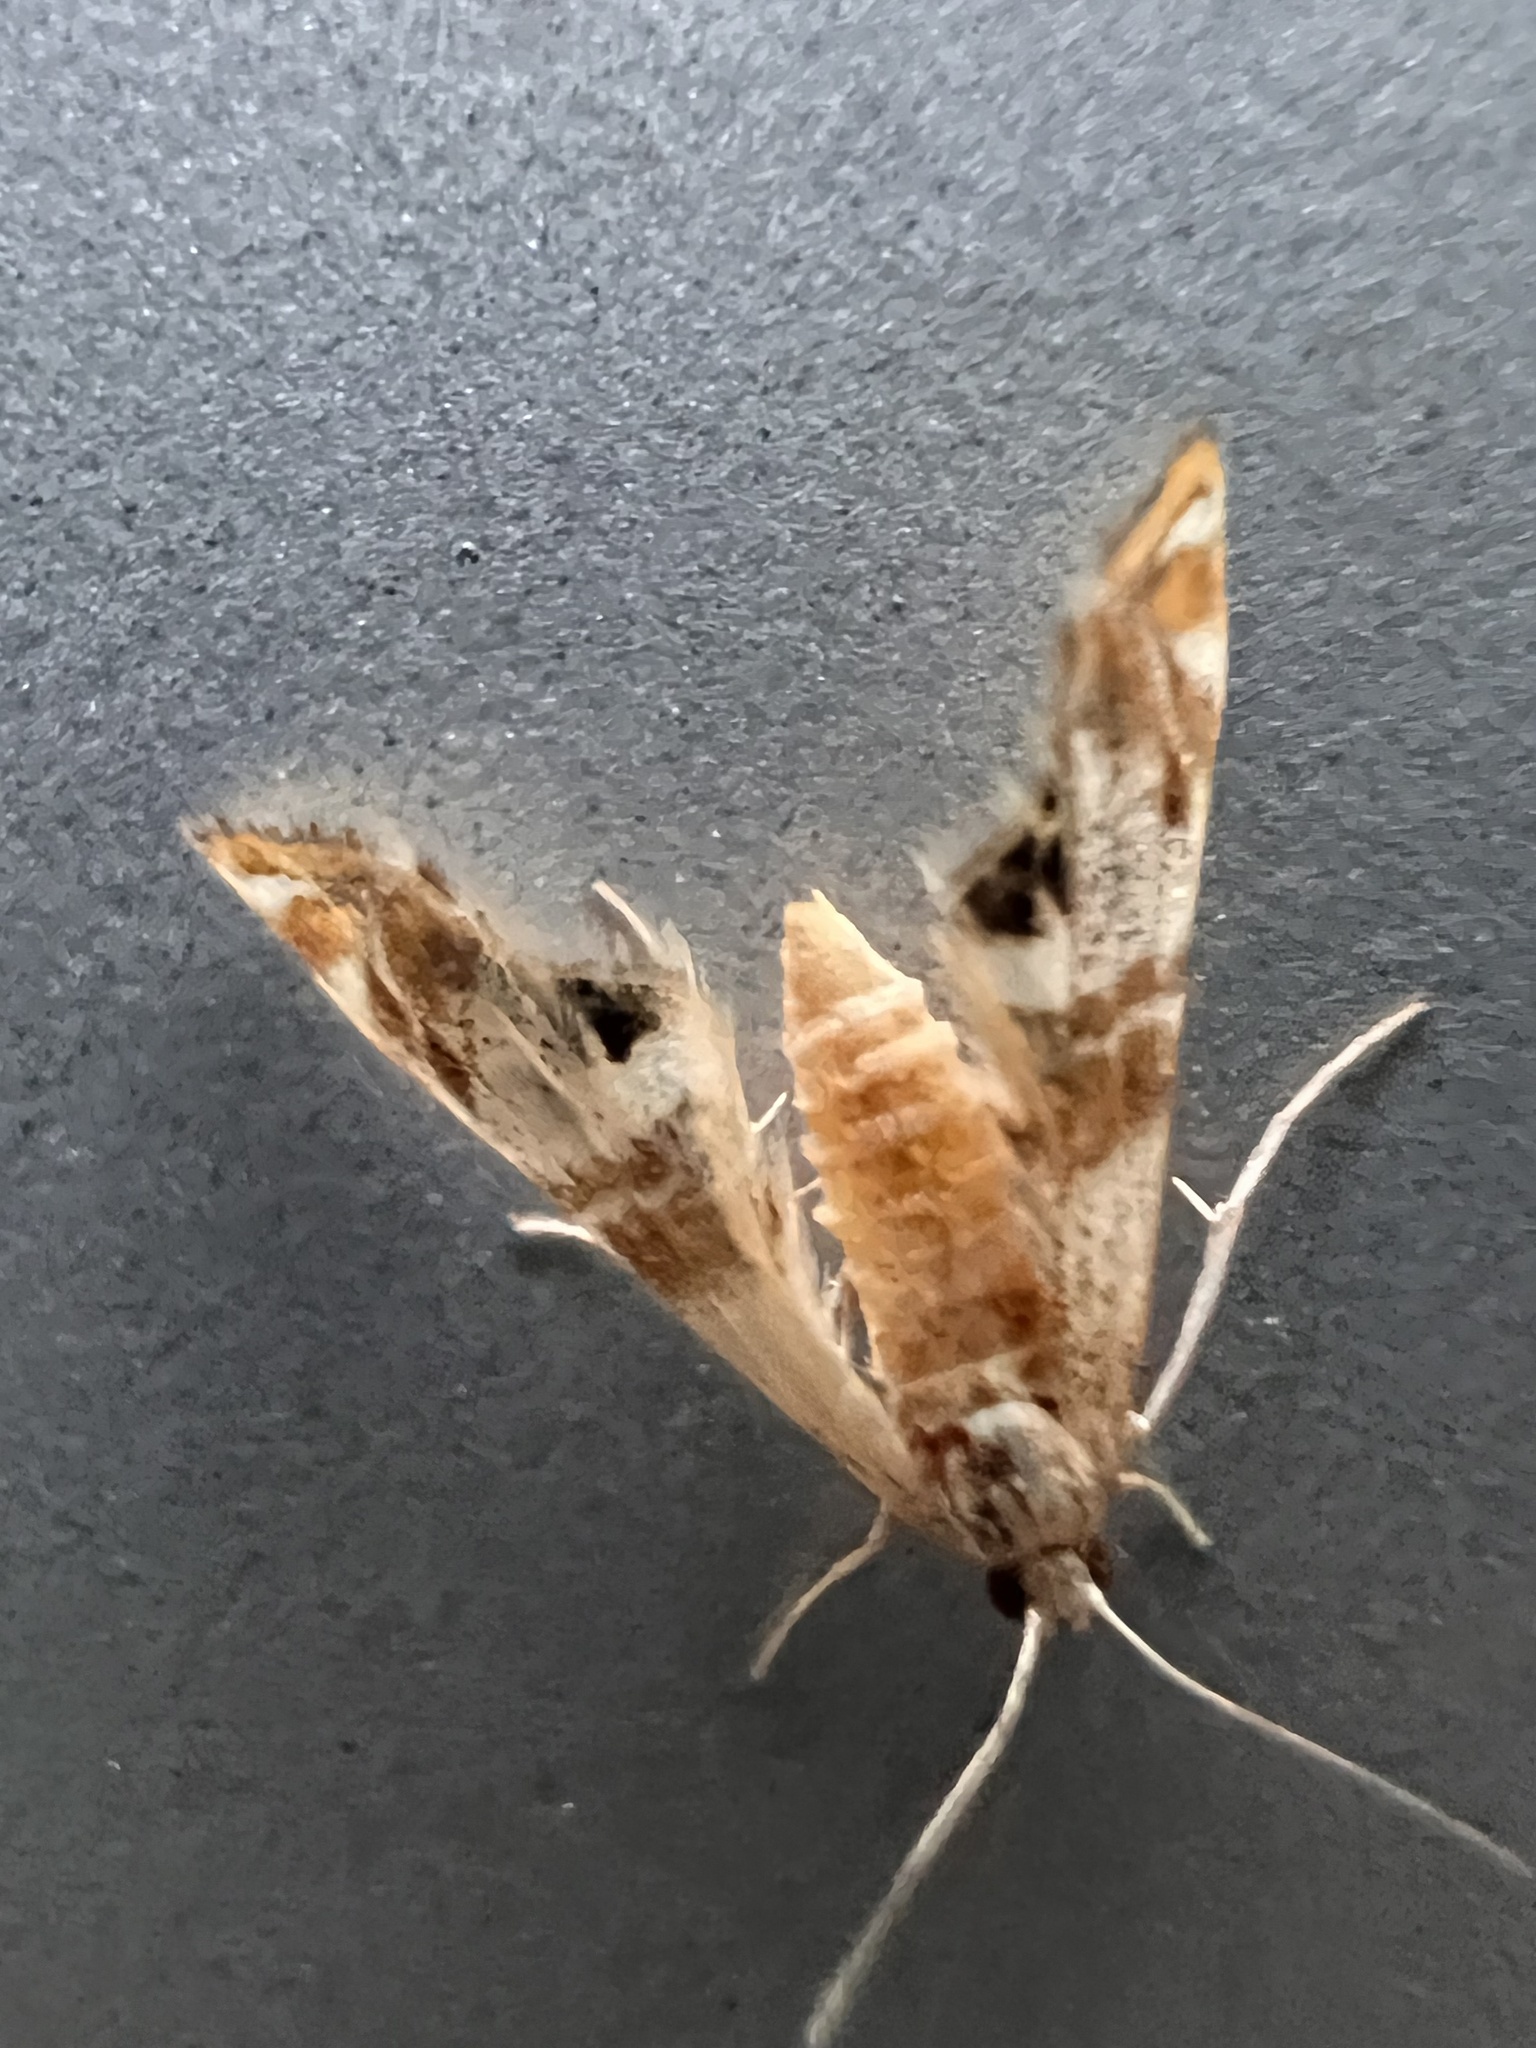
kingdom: Animalia
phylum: Arthropoda
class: Insecta
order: Lepidoptera
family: Crambidae
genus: Petrophila
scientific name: Petrophila bifascialis
